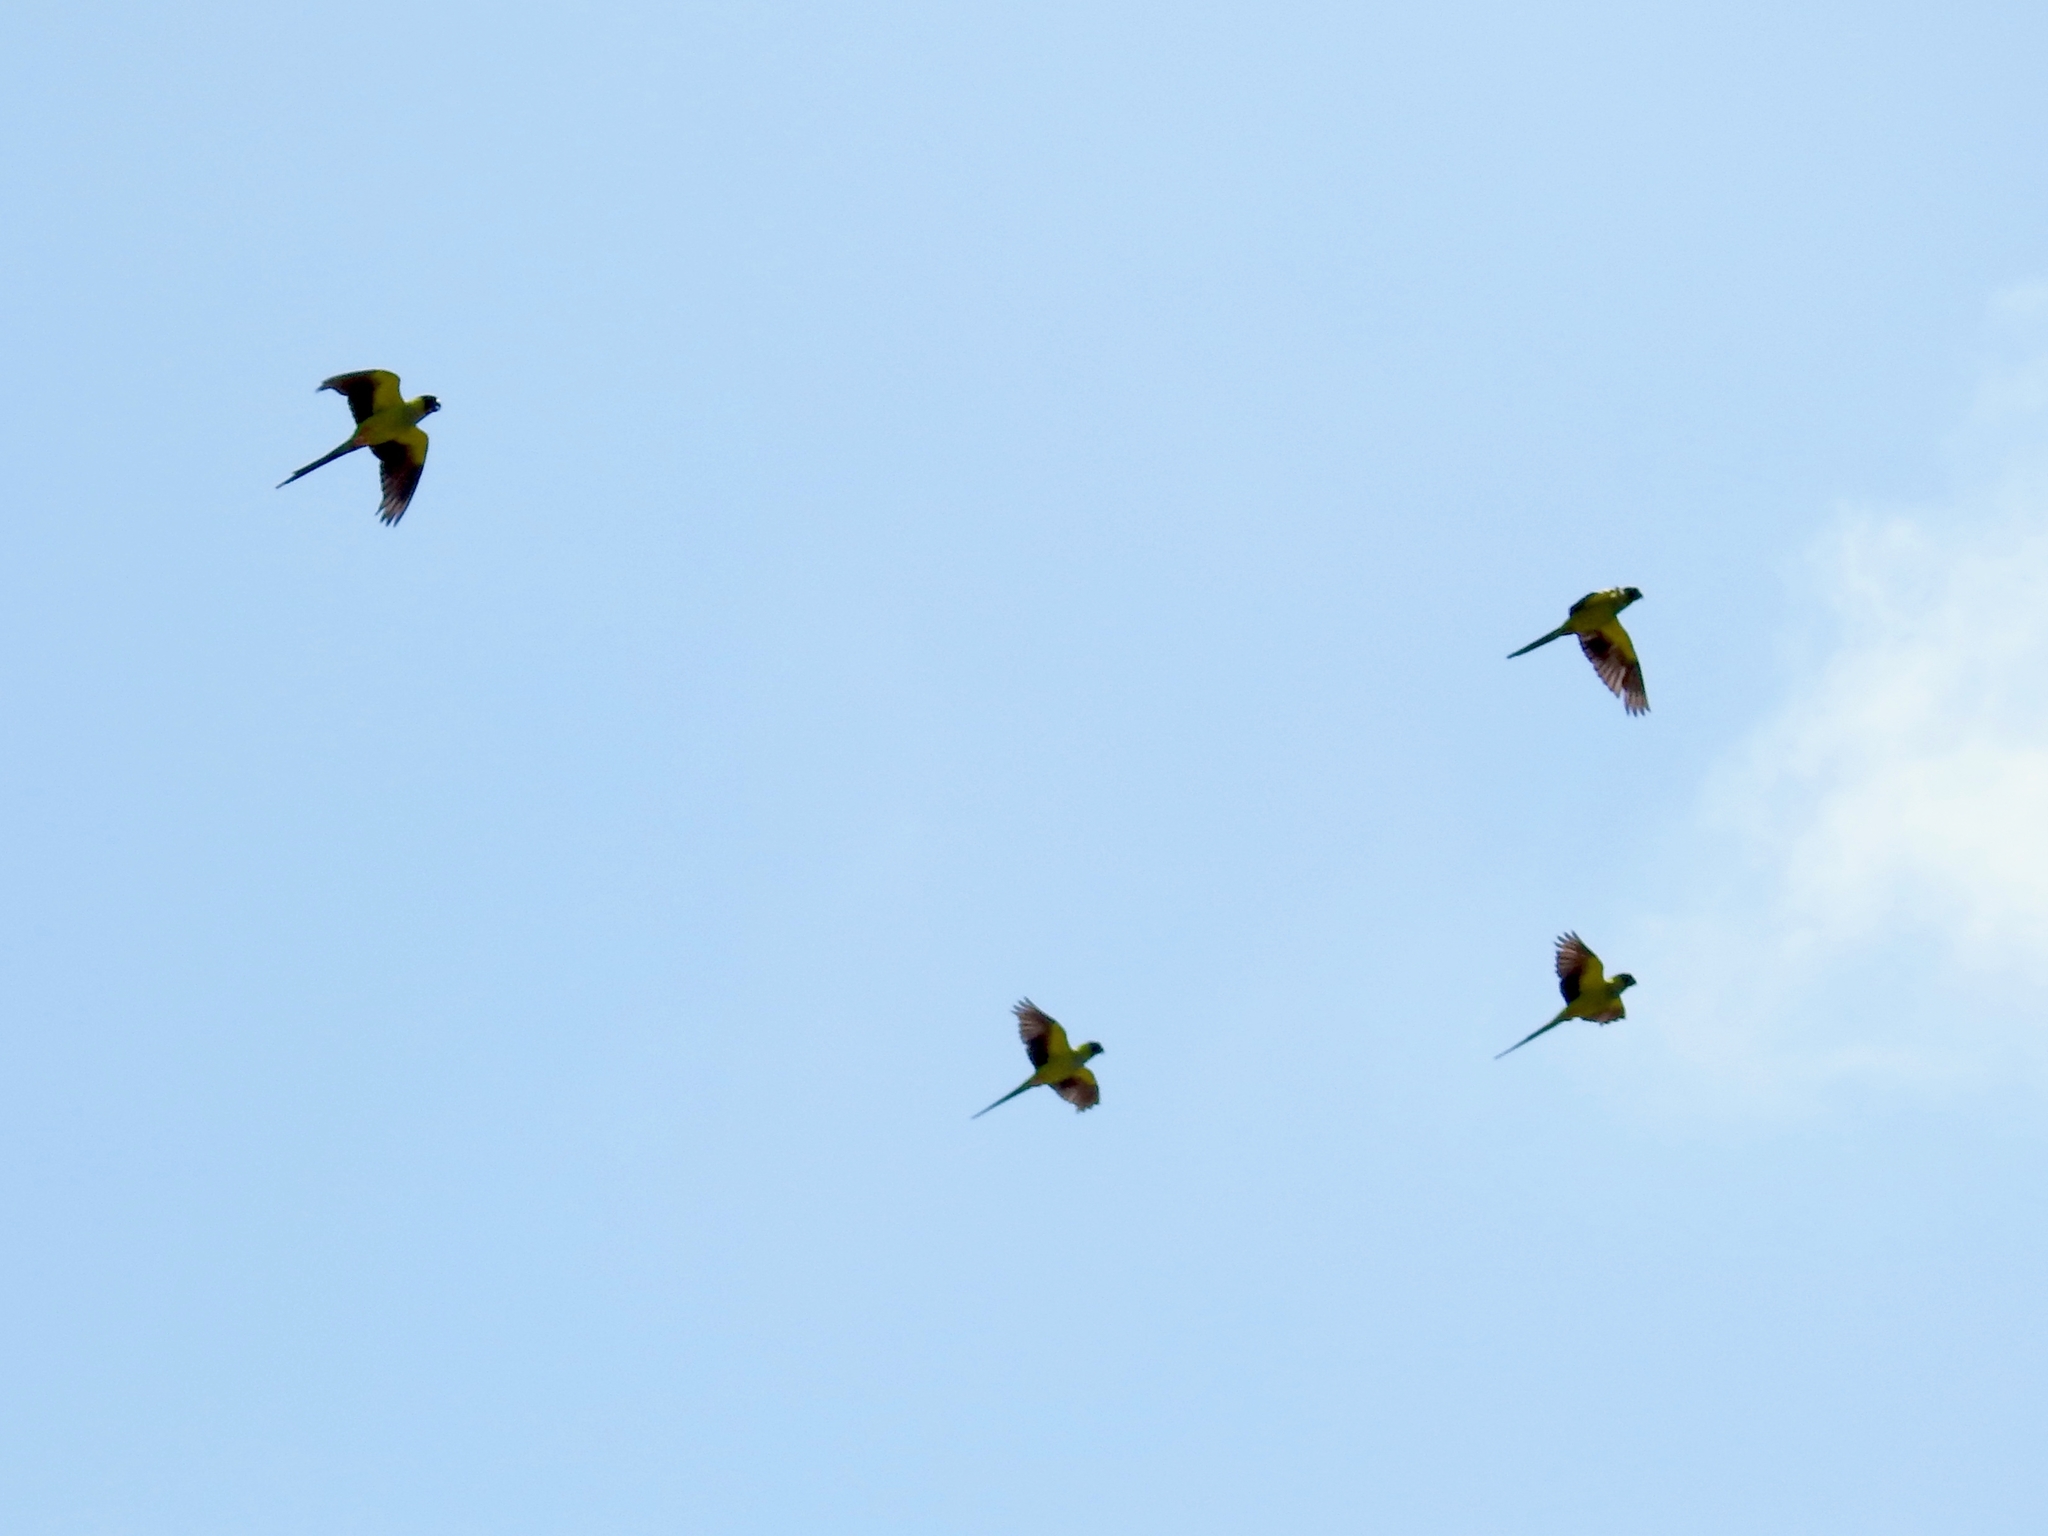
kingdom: Animalia
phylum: Chordata
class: Aves
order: Psittaciformes
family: Psittacidae
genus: Nandayus
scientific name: Nandayus nenday
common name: Nanday parakeet
